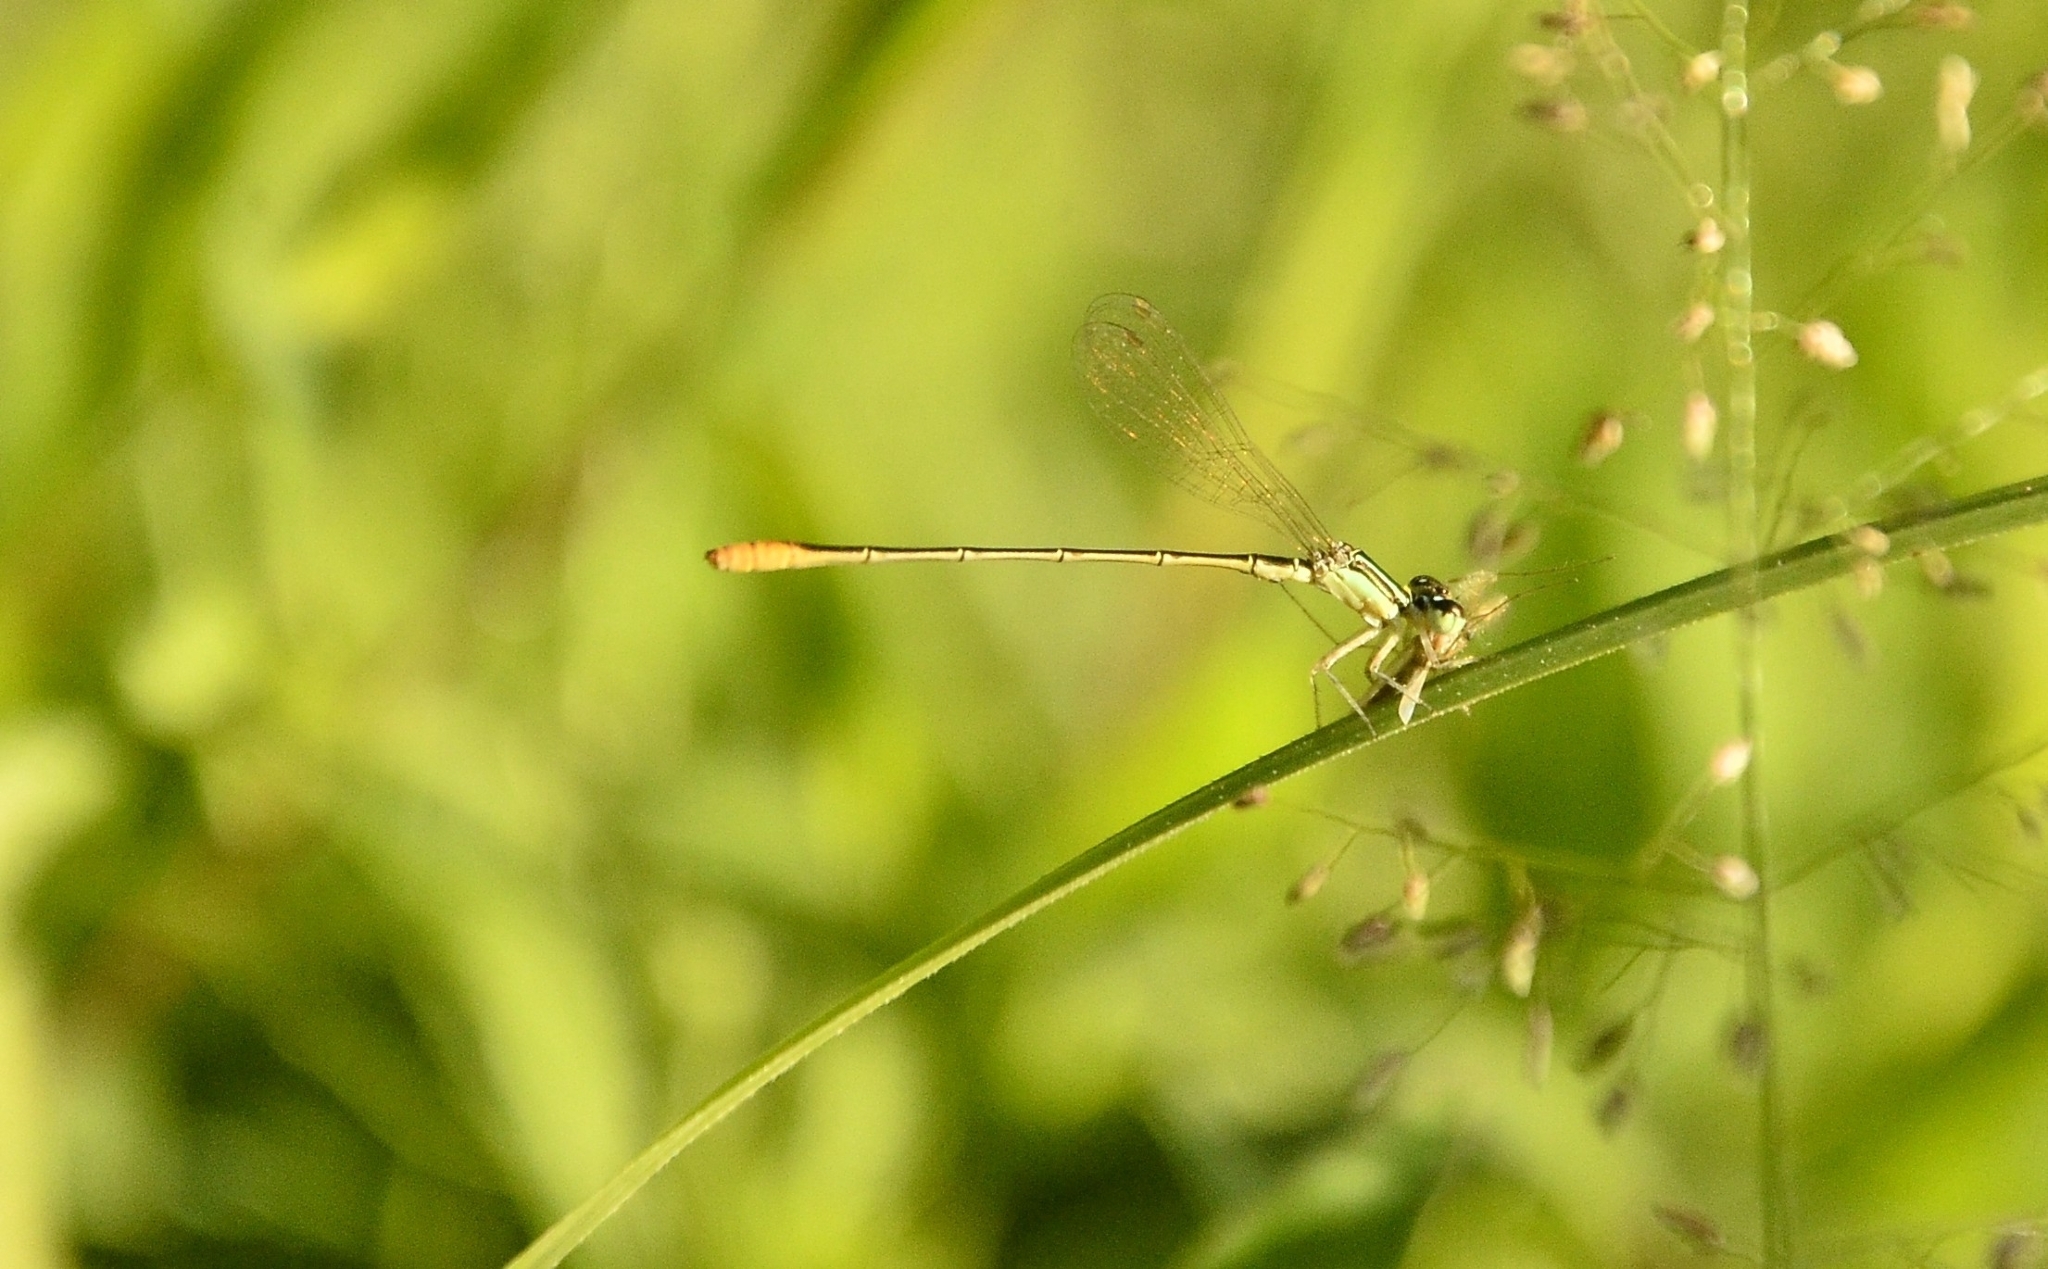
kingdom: Animalia
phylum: Arthropoda
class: Insecta
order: Odonata
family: Coenagrionidae
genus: Agriocnemis
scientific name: Agriocnemis pygmaea
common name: Pygmy wisp
